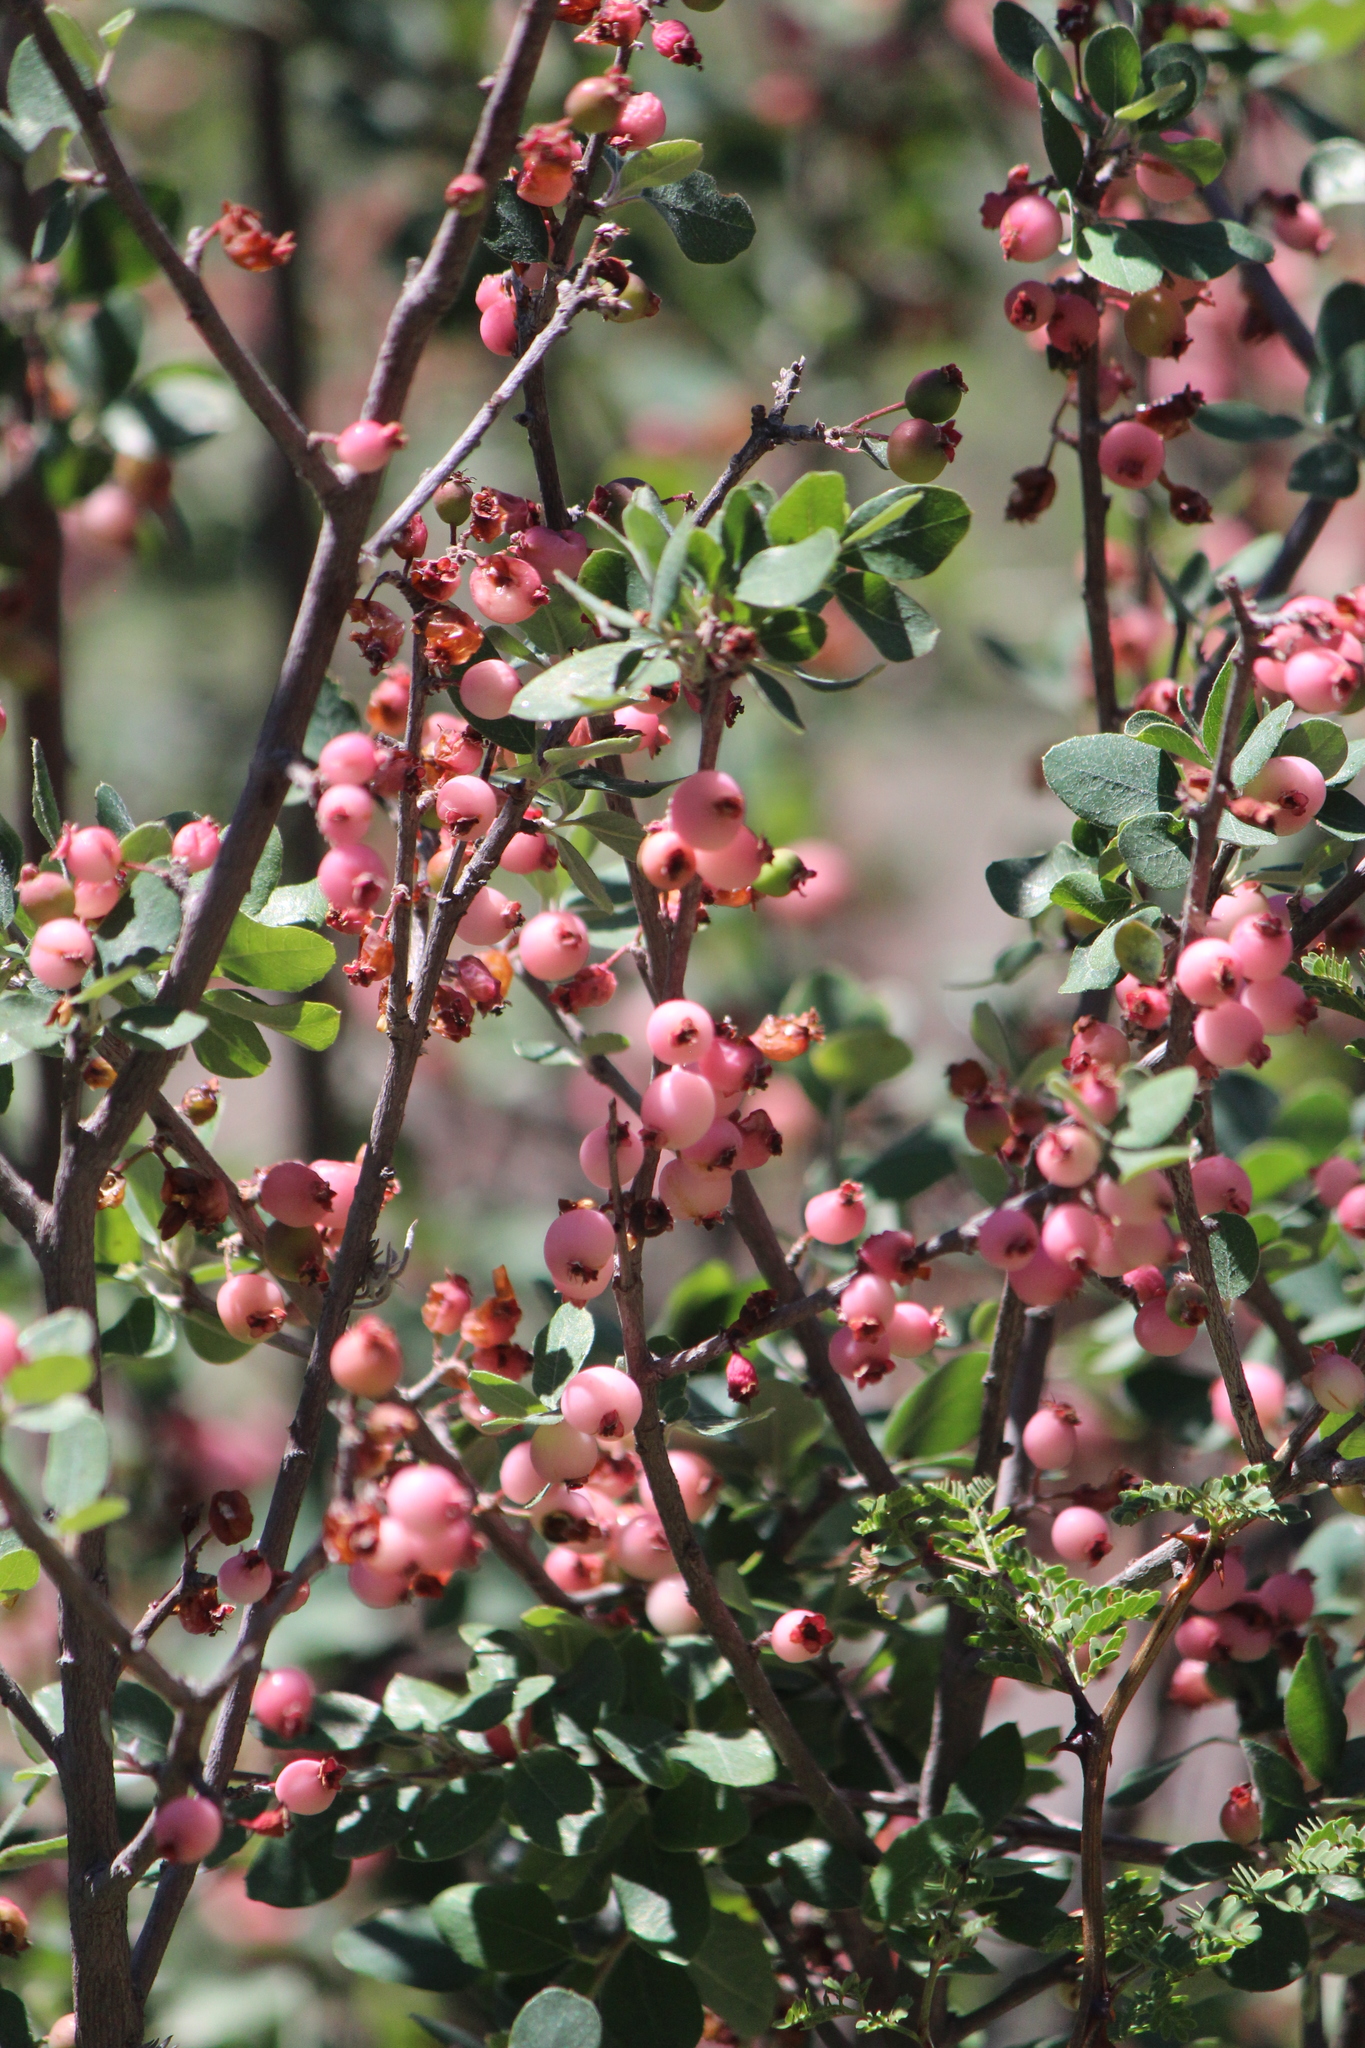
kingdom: Plantae
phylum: Tracheophyta
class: Magnoliopsida
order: Rosales
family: Rosaceae
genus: Malacomeles
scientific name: Malacomeles denticulata
